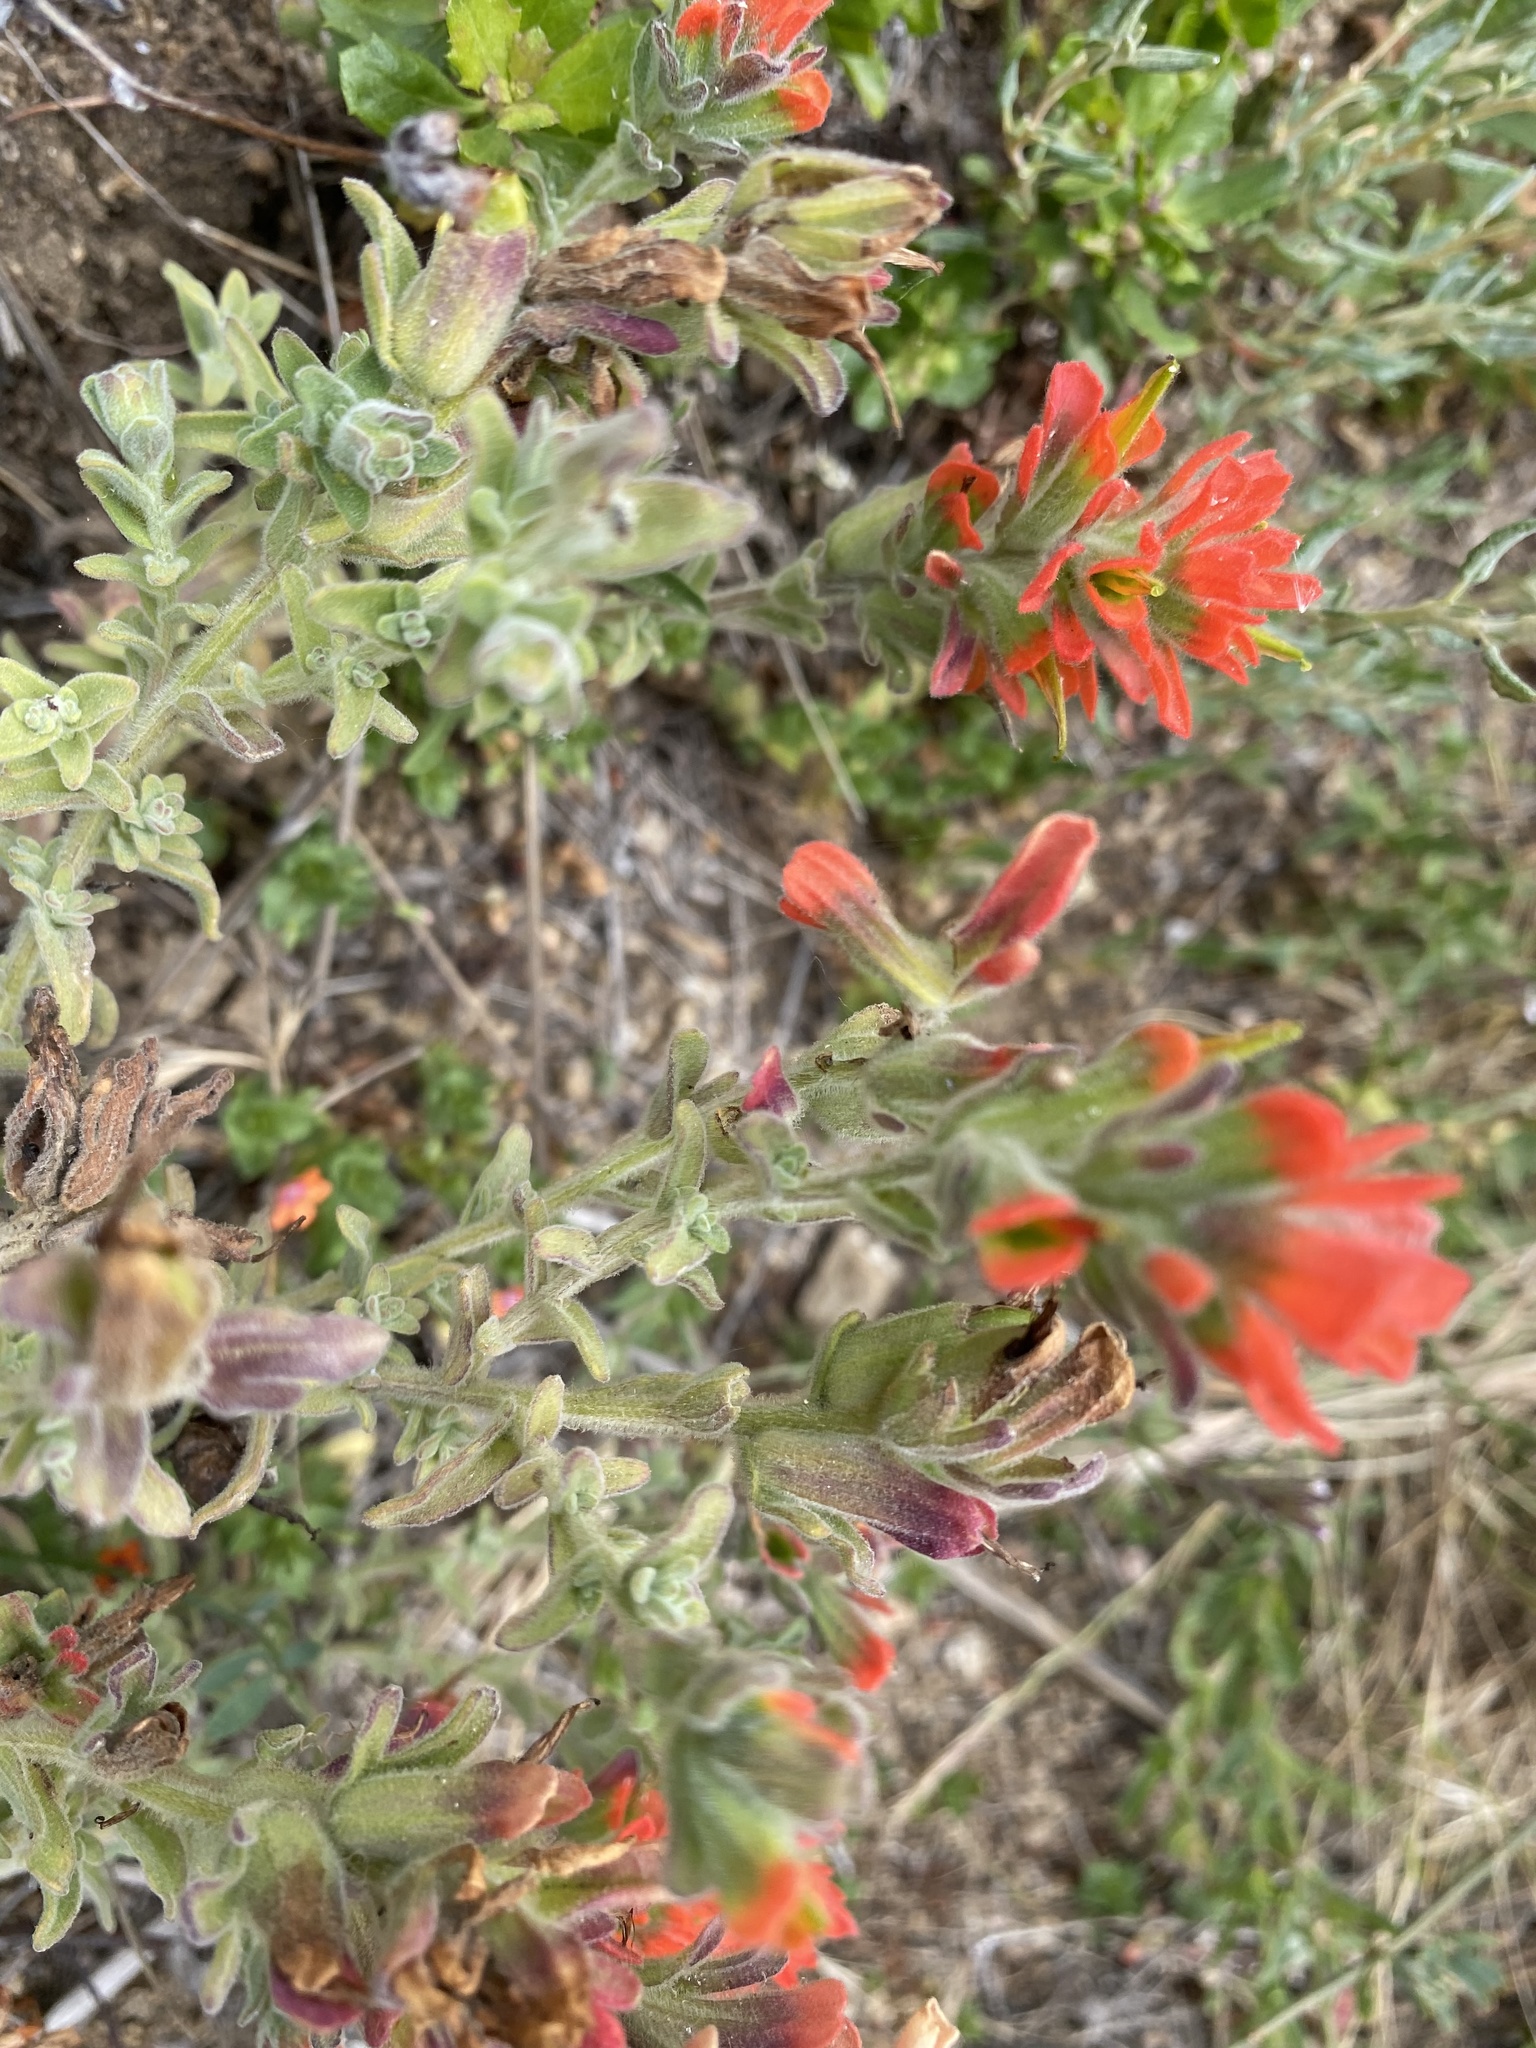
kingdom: Plantae
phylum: Tracheophyta
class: Magnoliopsida
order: Lamiales
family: Orobanchaceae
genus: Castilleja
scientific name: Castilleja latifolia
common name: Monterey indian paintbrush
